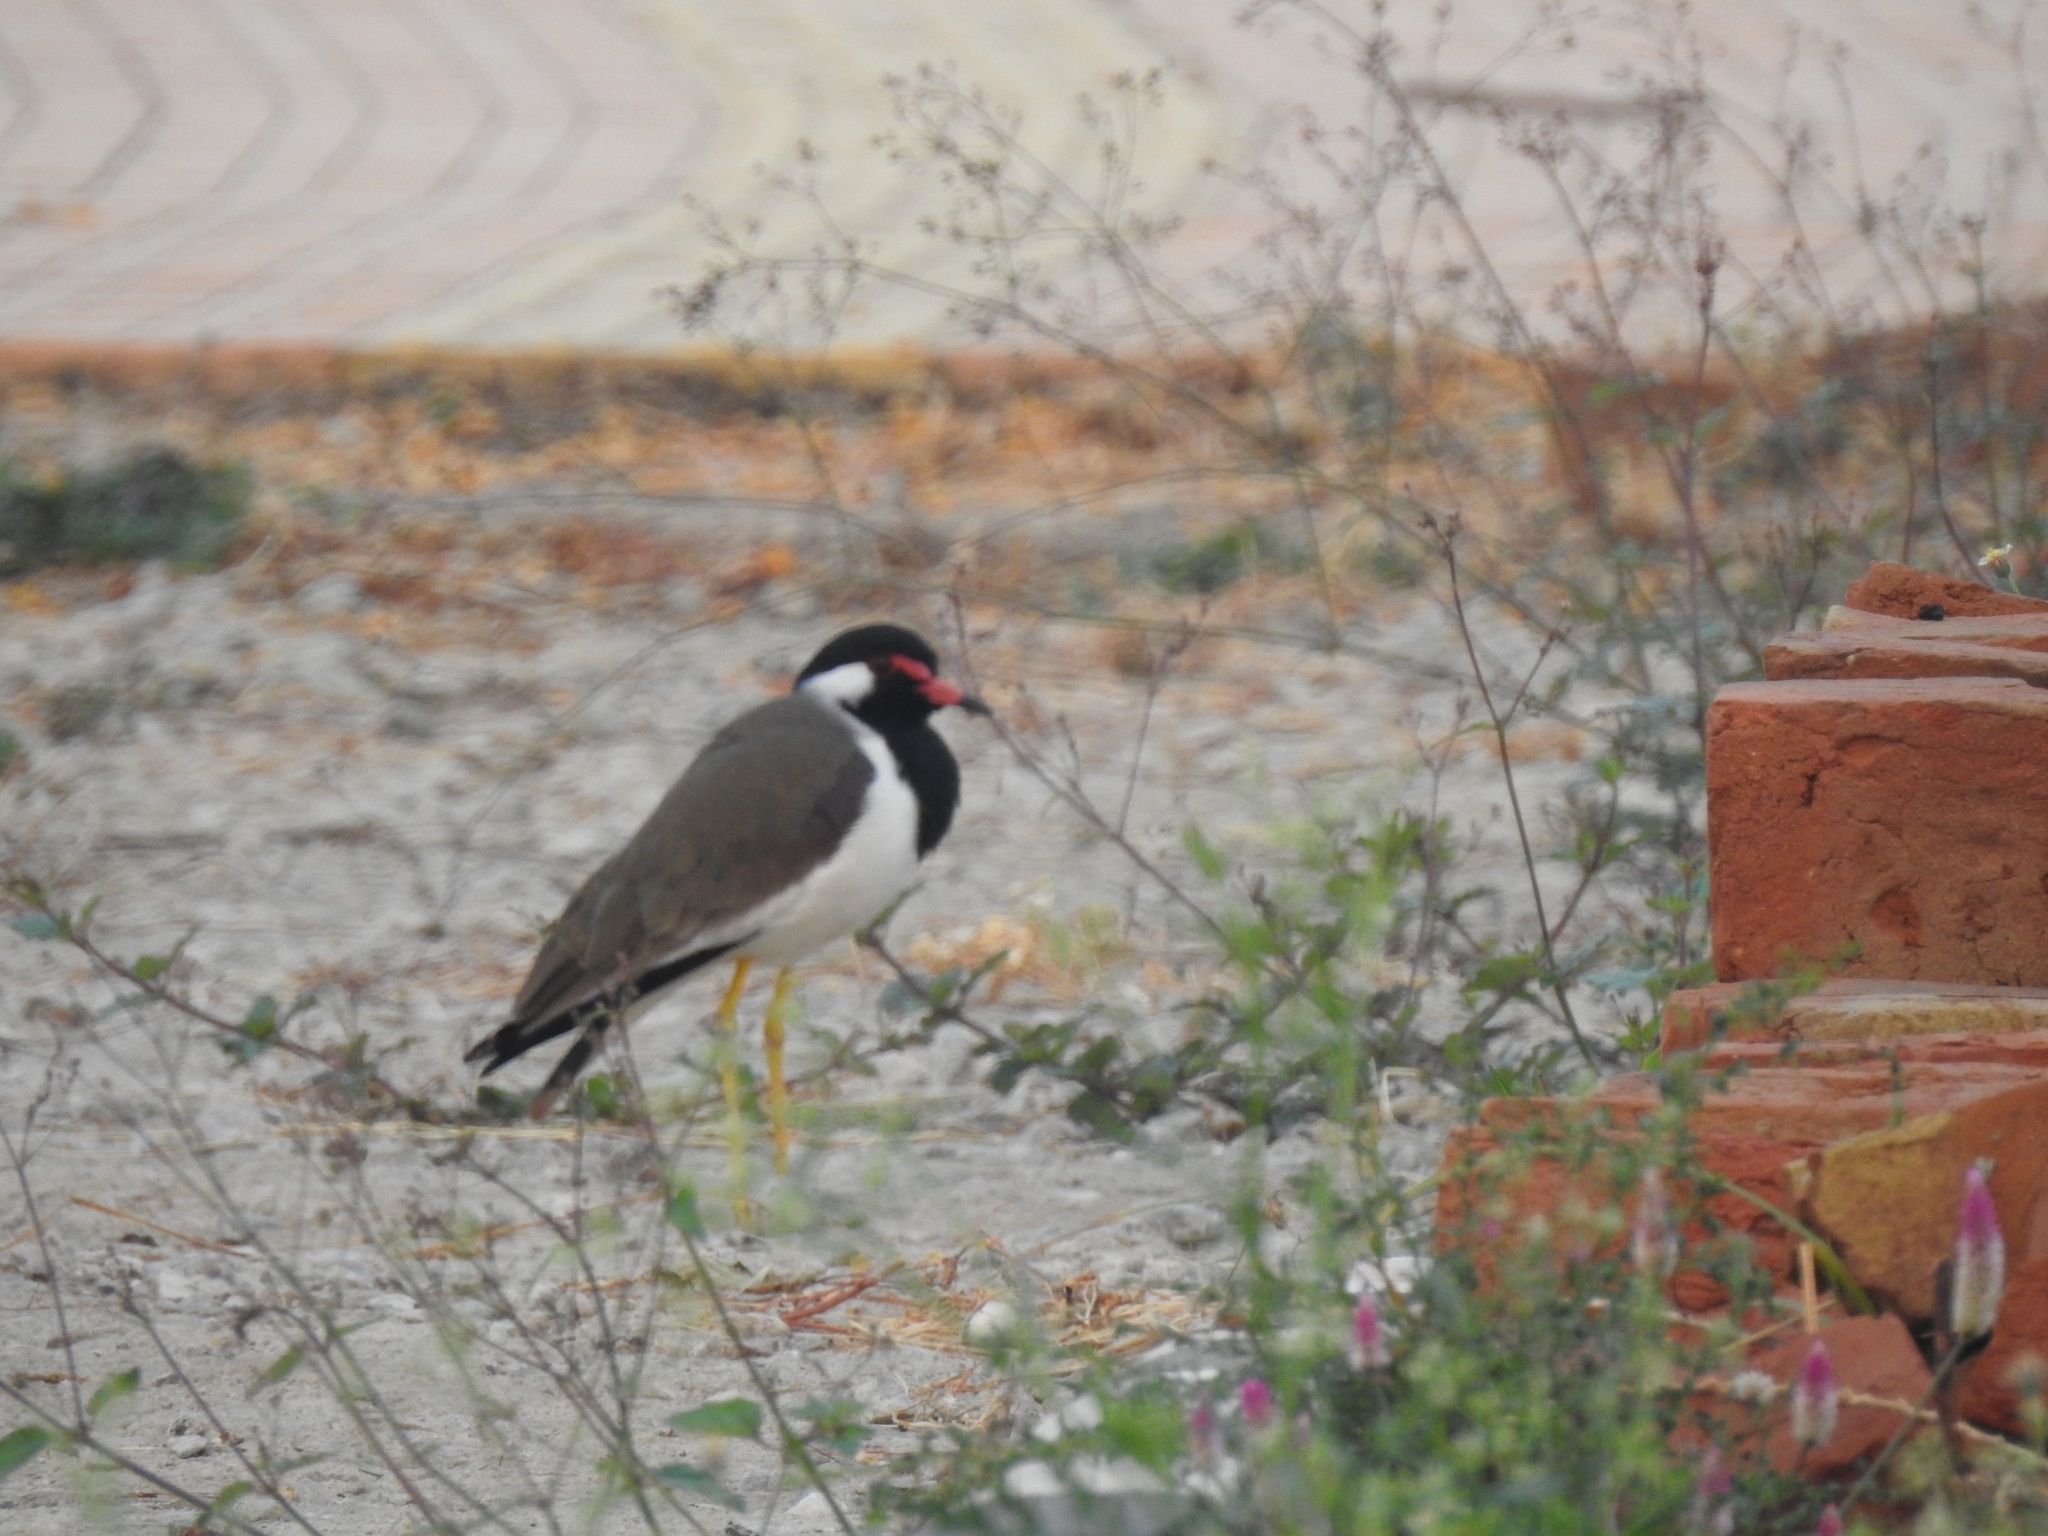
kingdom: Animalia
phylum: Chordata
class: Aves
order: Charadriiformes
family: Charadriidae
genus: Vanellus
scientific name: Vanellus indicus
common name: Red-wattled lapwing
